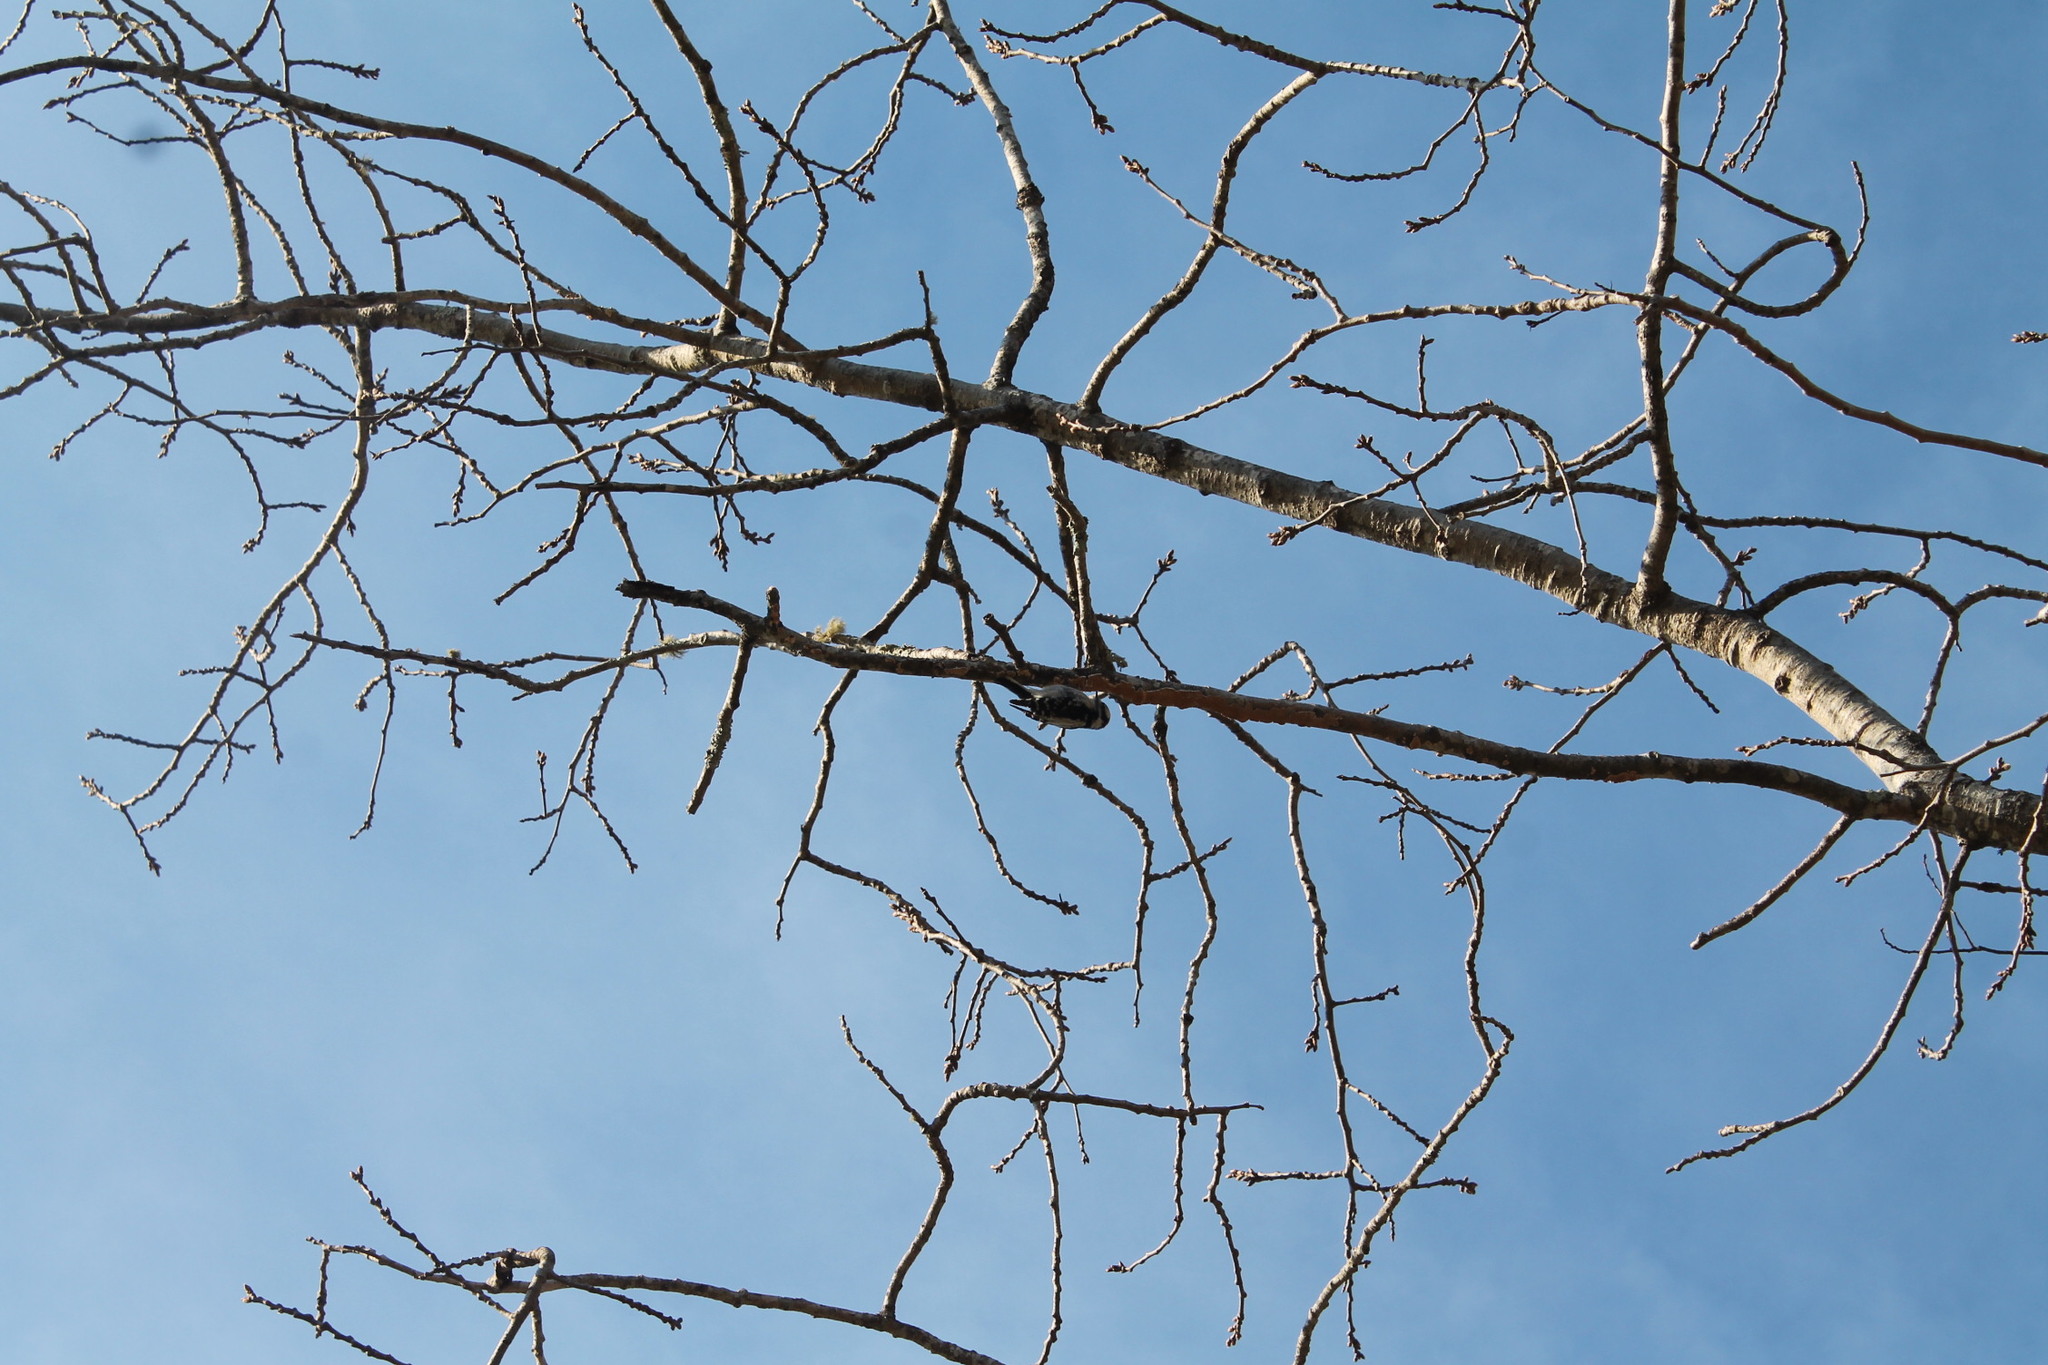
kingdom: Animalia
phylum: Chordata
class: Aves
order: Piciformes
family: Picidae
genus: Dryobates
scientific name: Dryobates pubescens
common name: Downy woodpecker
